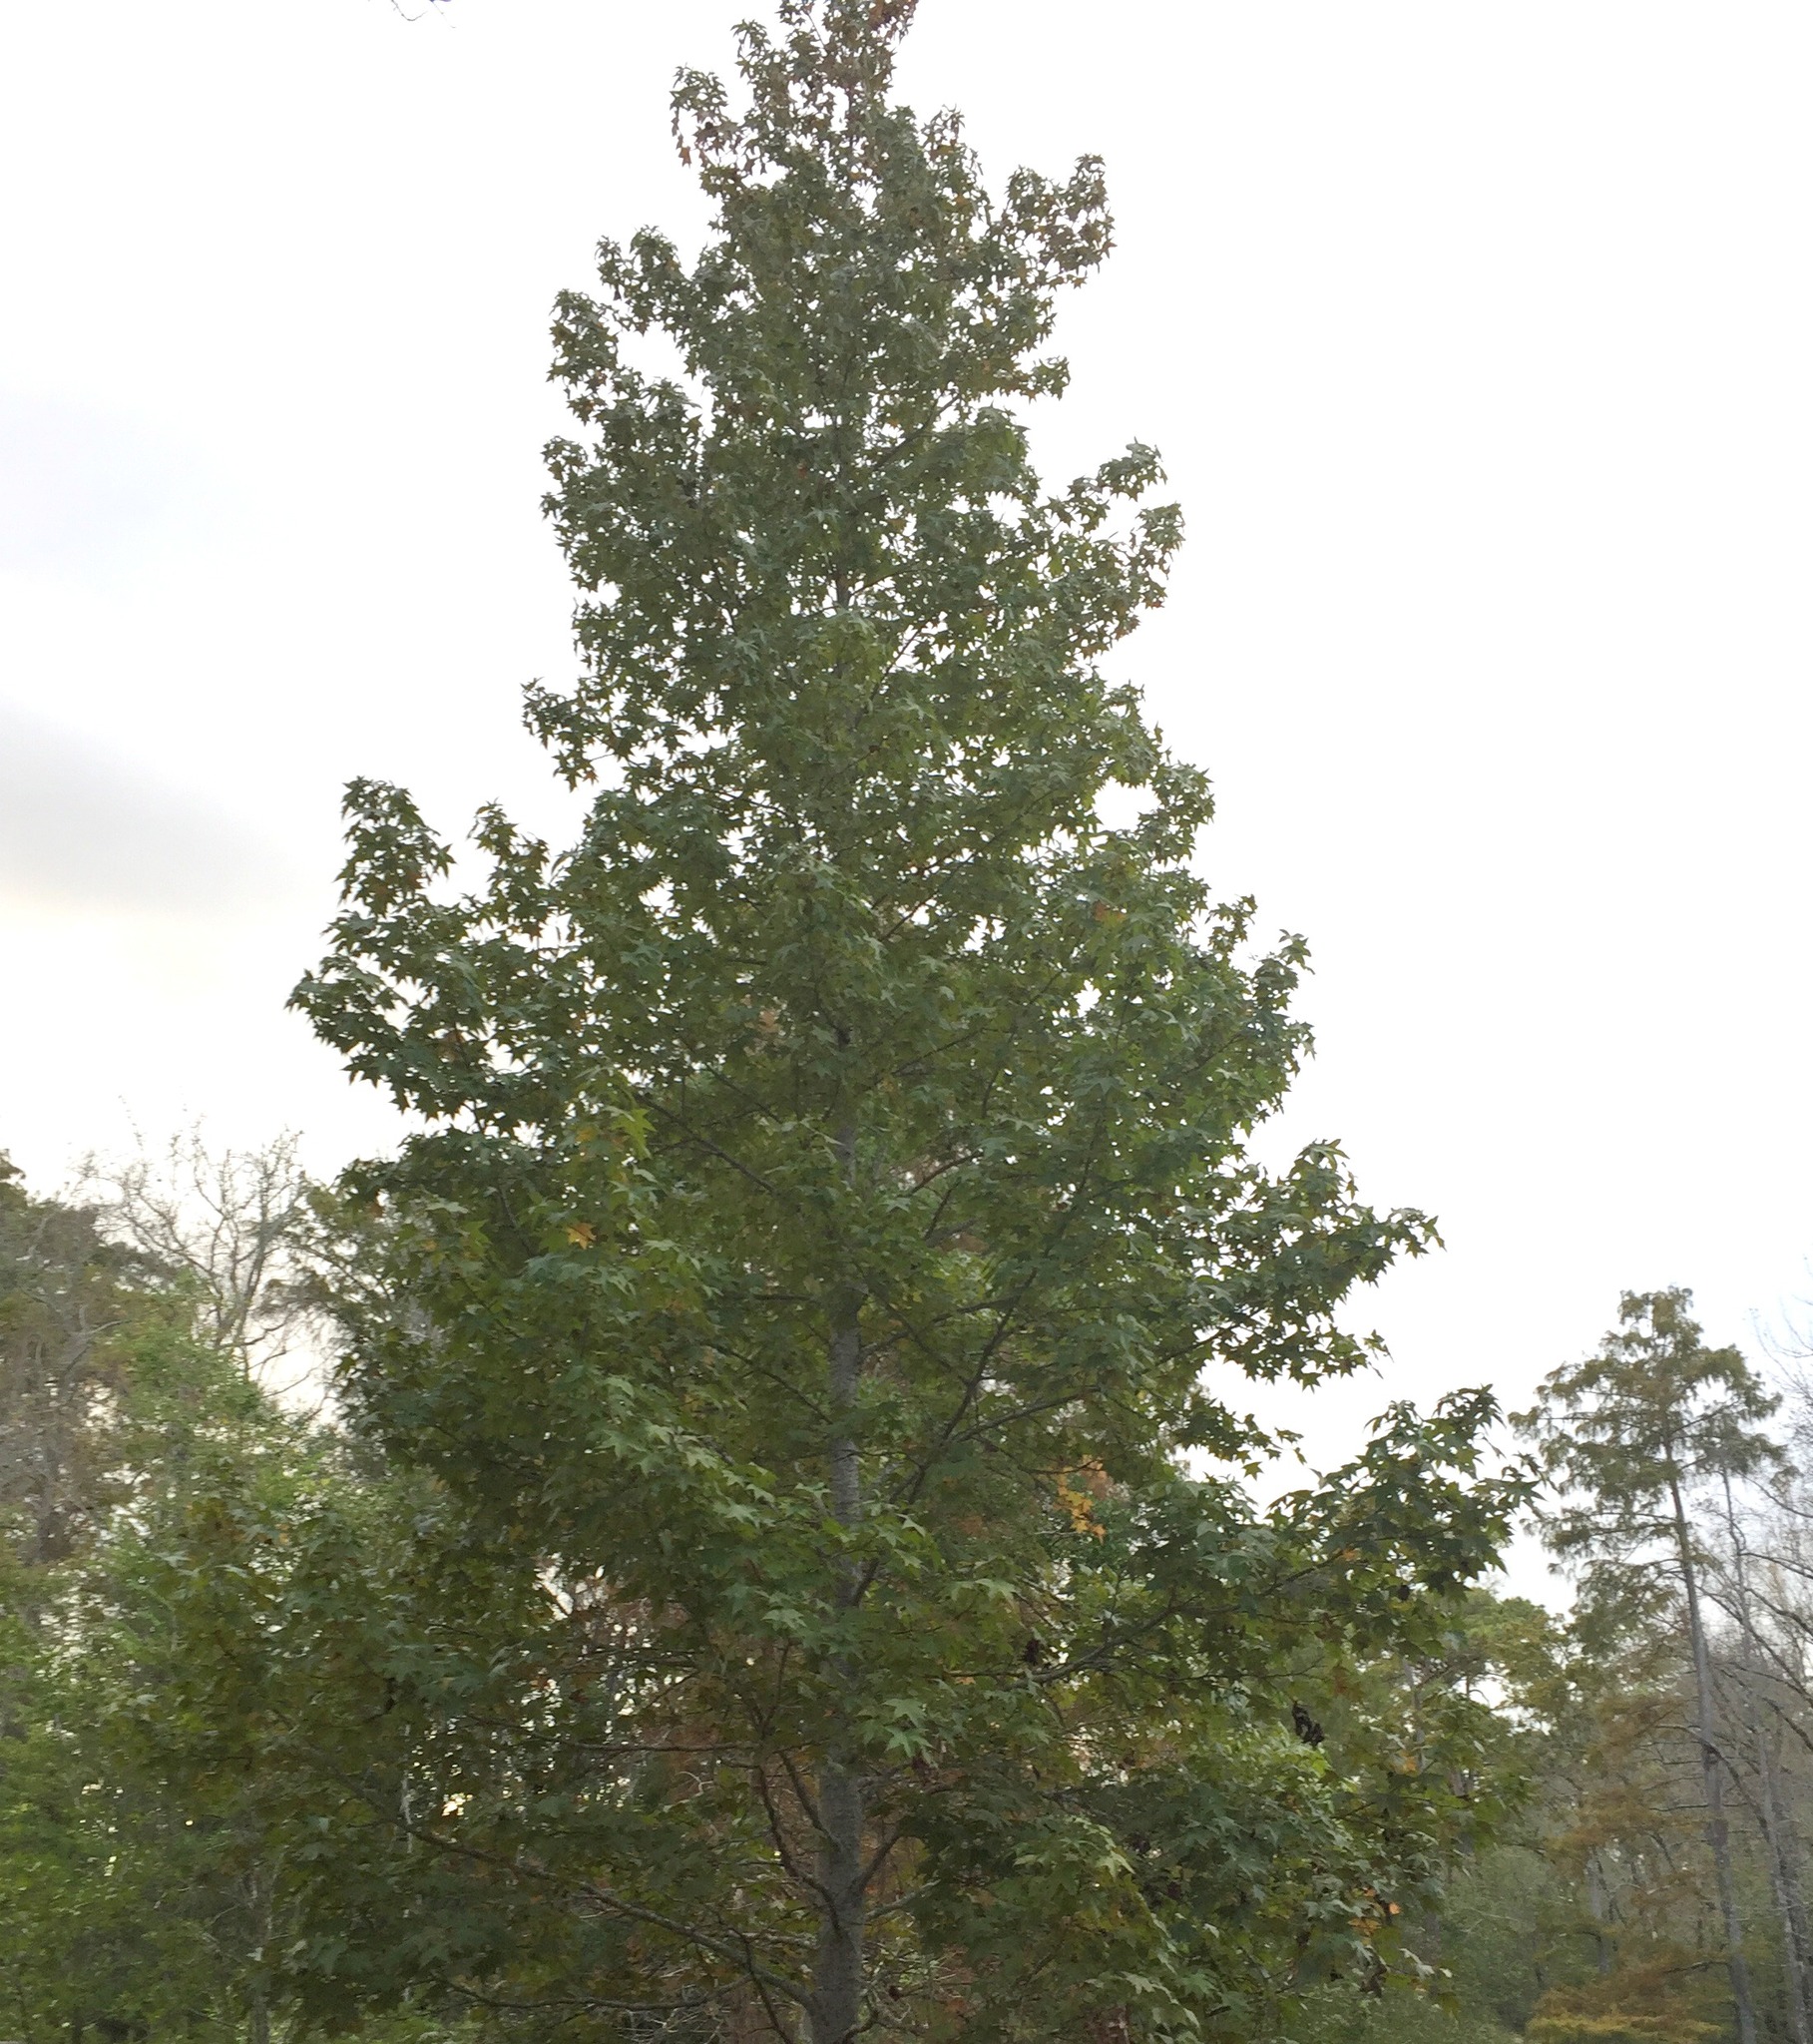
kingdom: Plantae
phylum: Tracheophyta
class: Magnoliopsida
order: Saxifragales
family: Altingiaceae
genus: Liquidambar
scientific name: Liquidambar styraciflua
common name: Sweet gum
